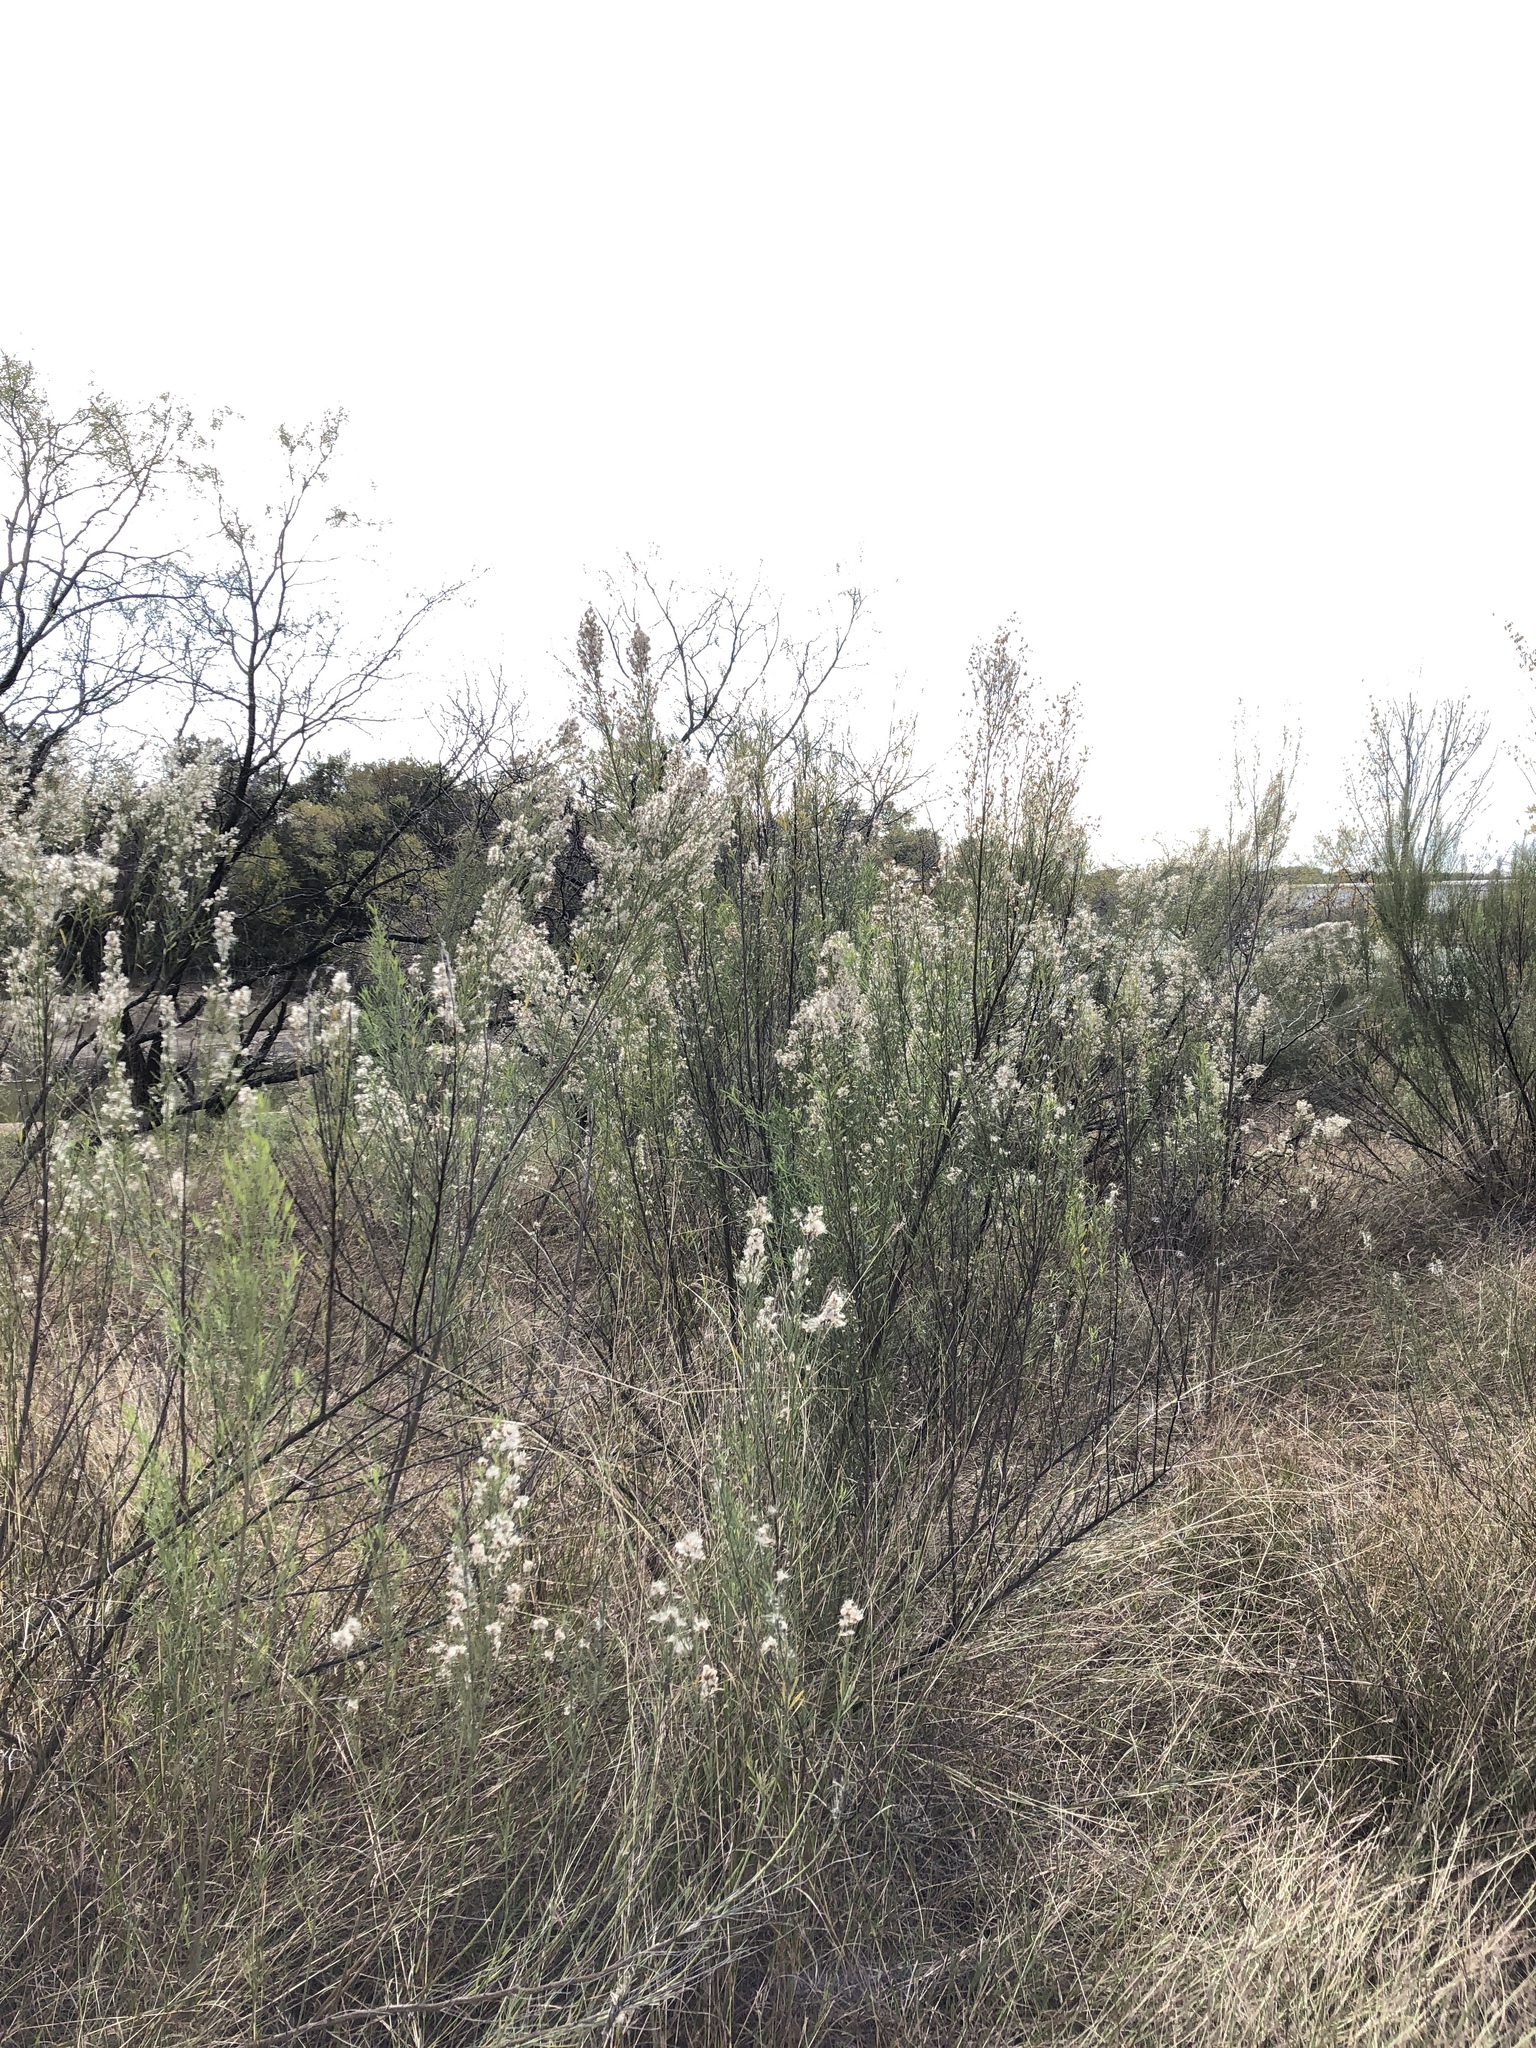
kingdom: Plantae
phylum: Tracheophyta
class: Magnoliopsida
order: Asterales
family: Asteraceae
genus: Baccharis
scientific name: Baccharis neglecta
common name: Roosevelt-weed
